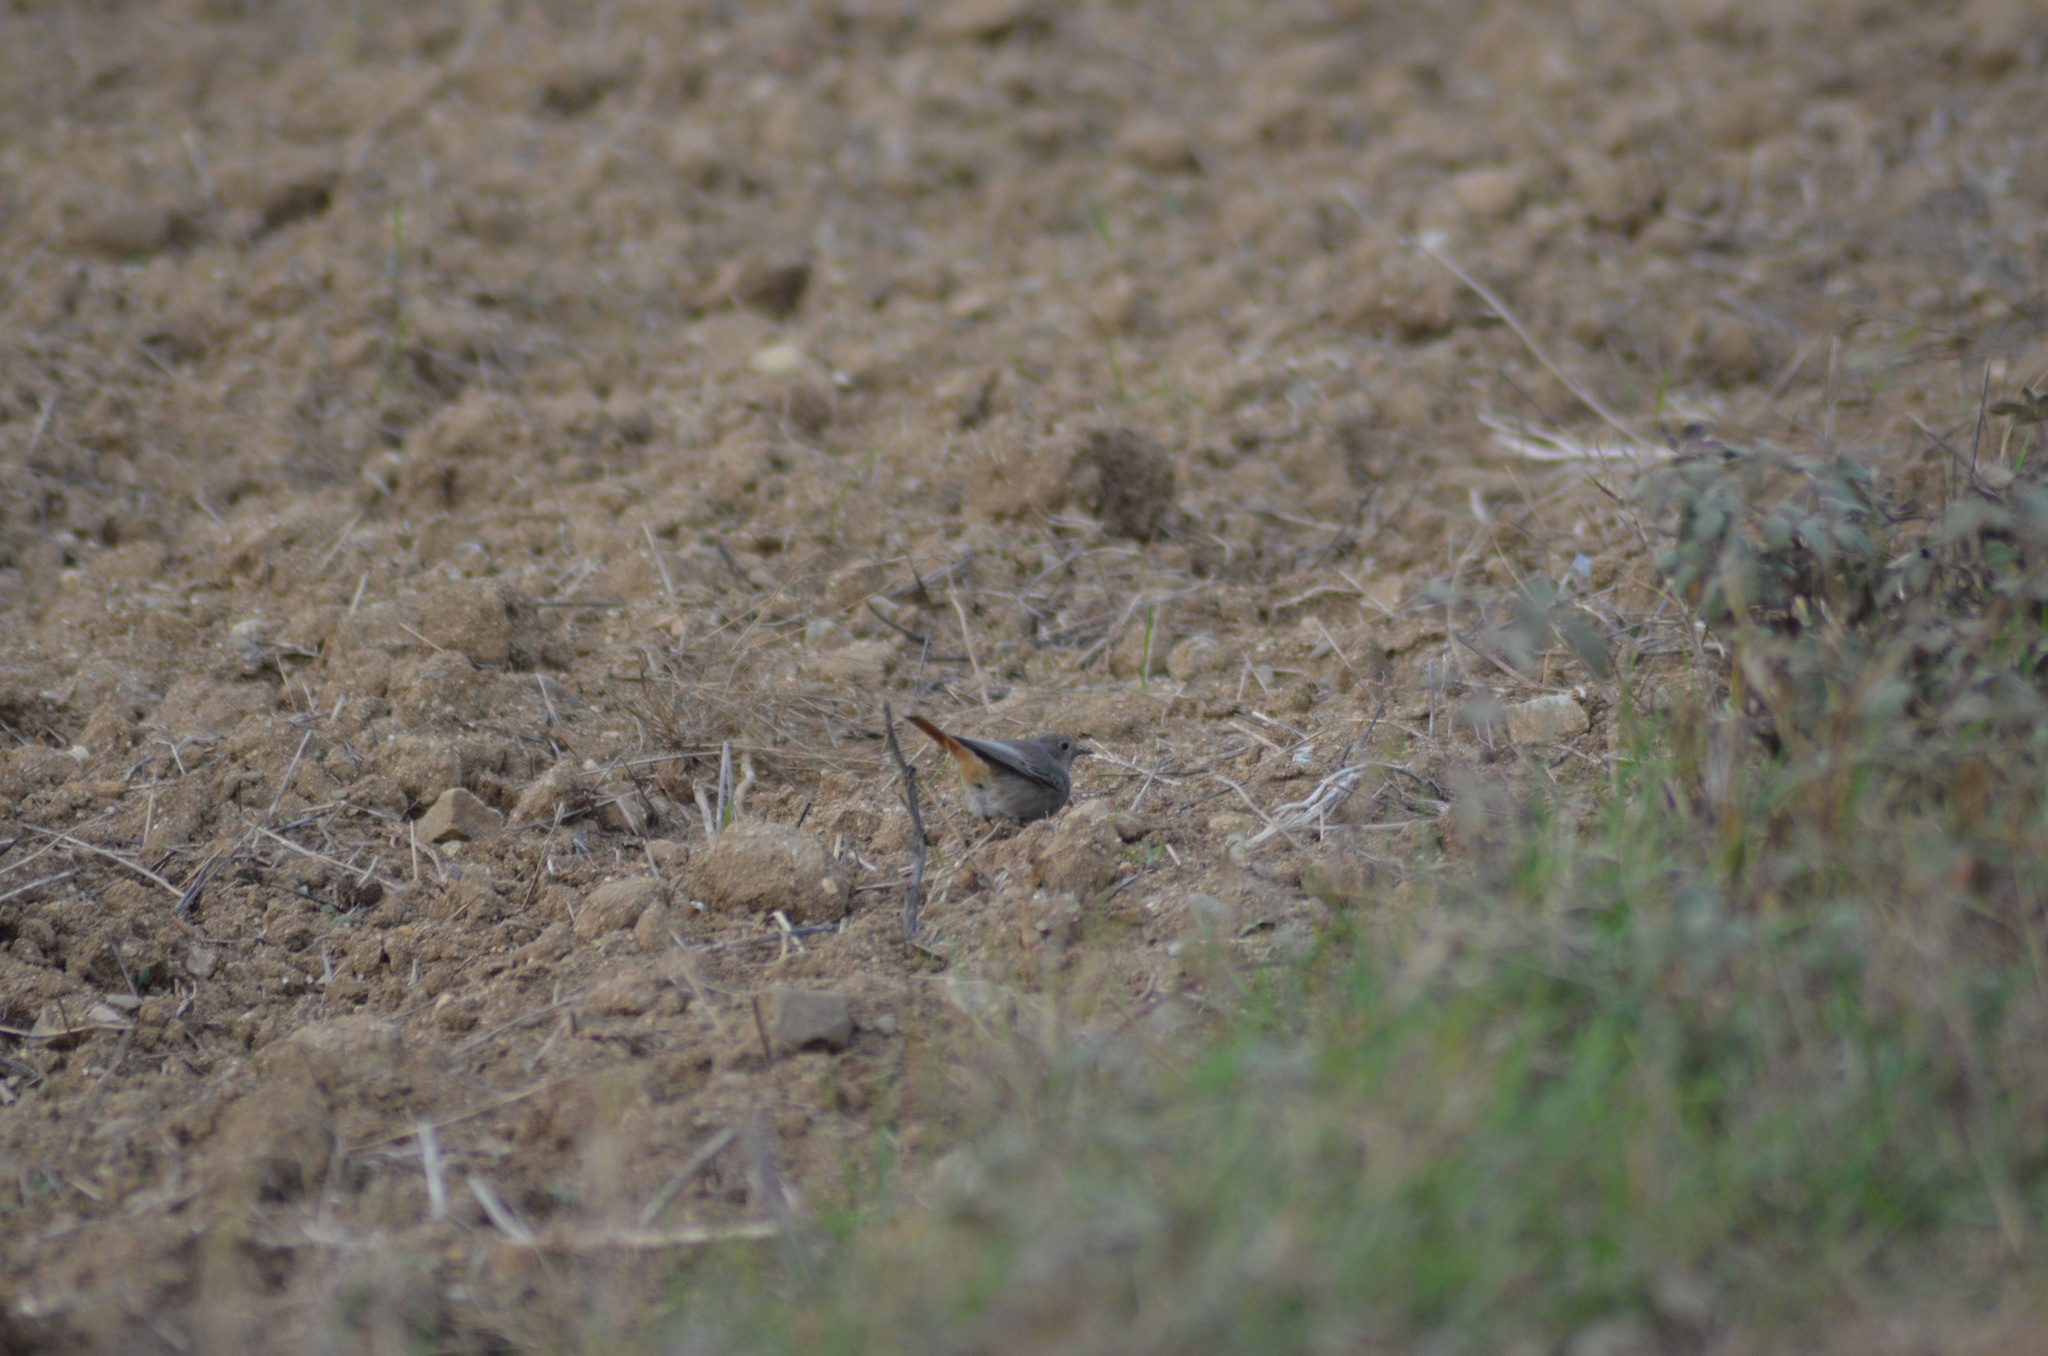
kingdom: Animalia
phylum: Chordata
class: Aves
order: Passeriformes
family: Muscicapidae
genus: Phoenicurus
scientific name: Phoenicurus ochruros
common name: Black redstart
